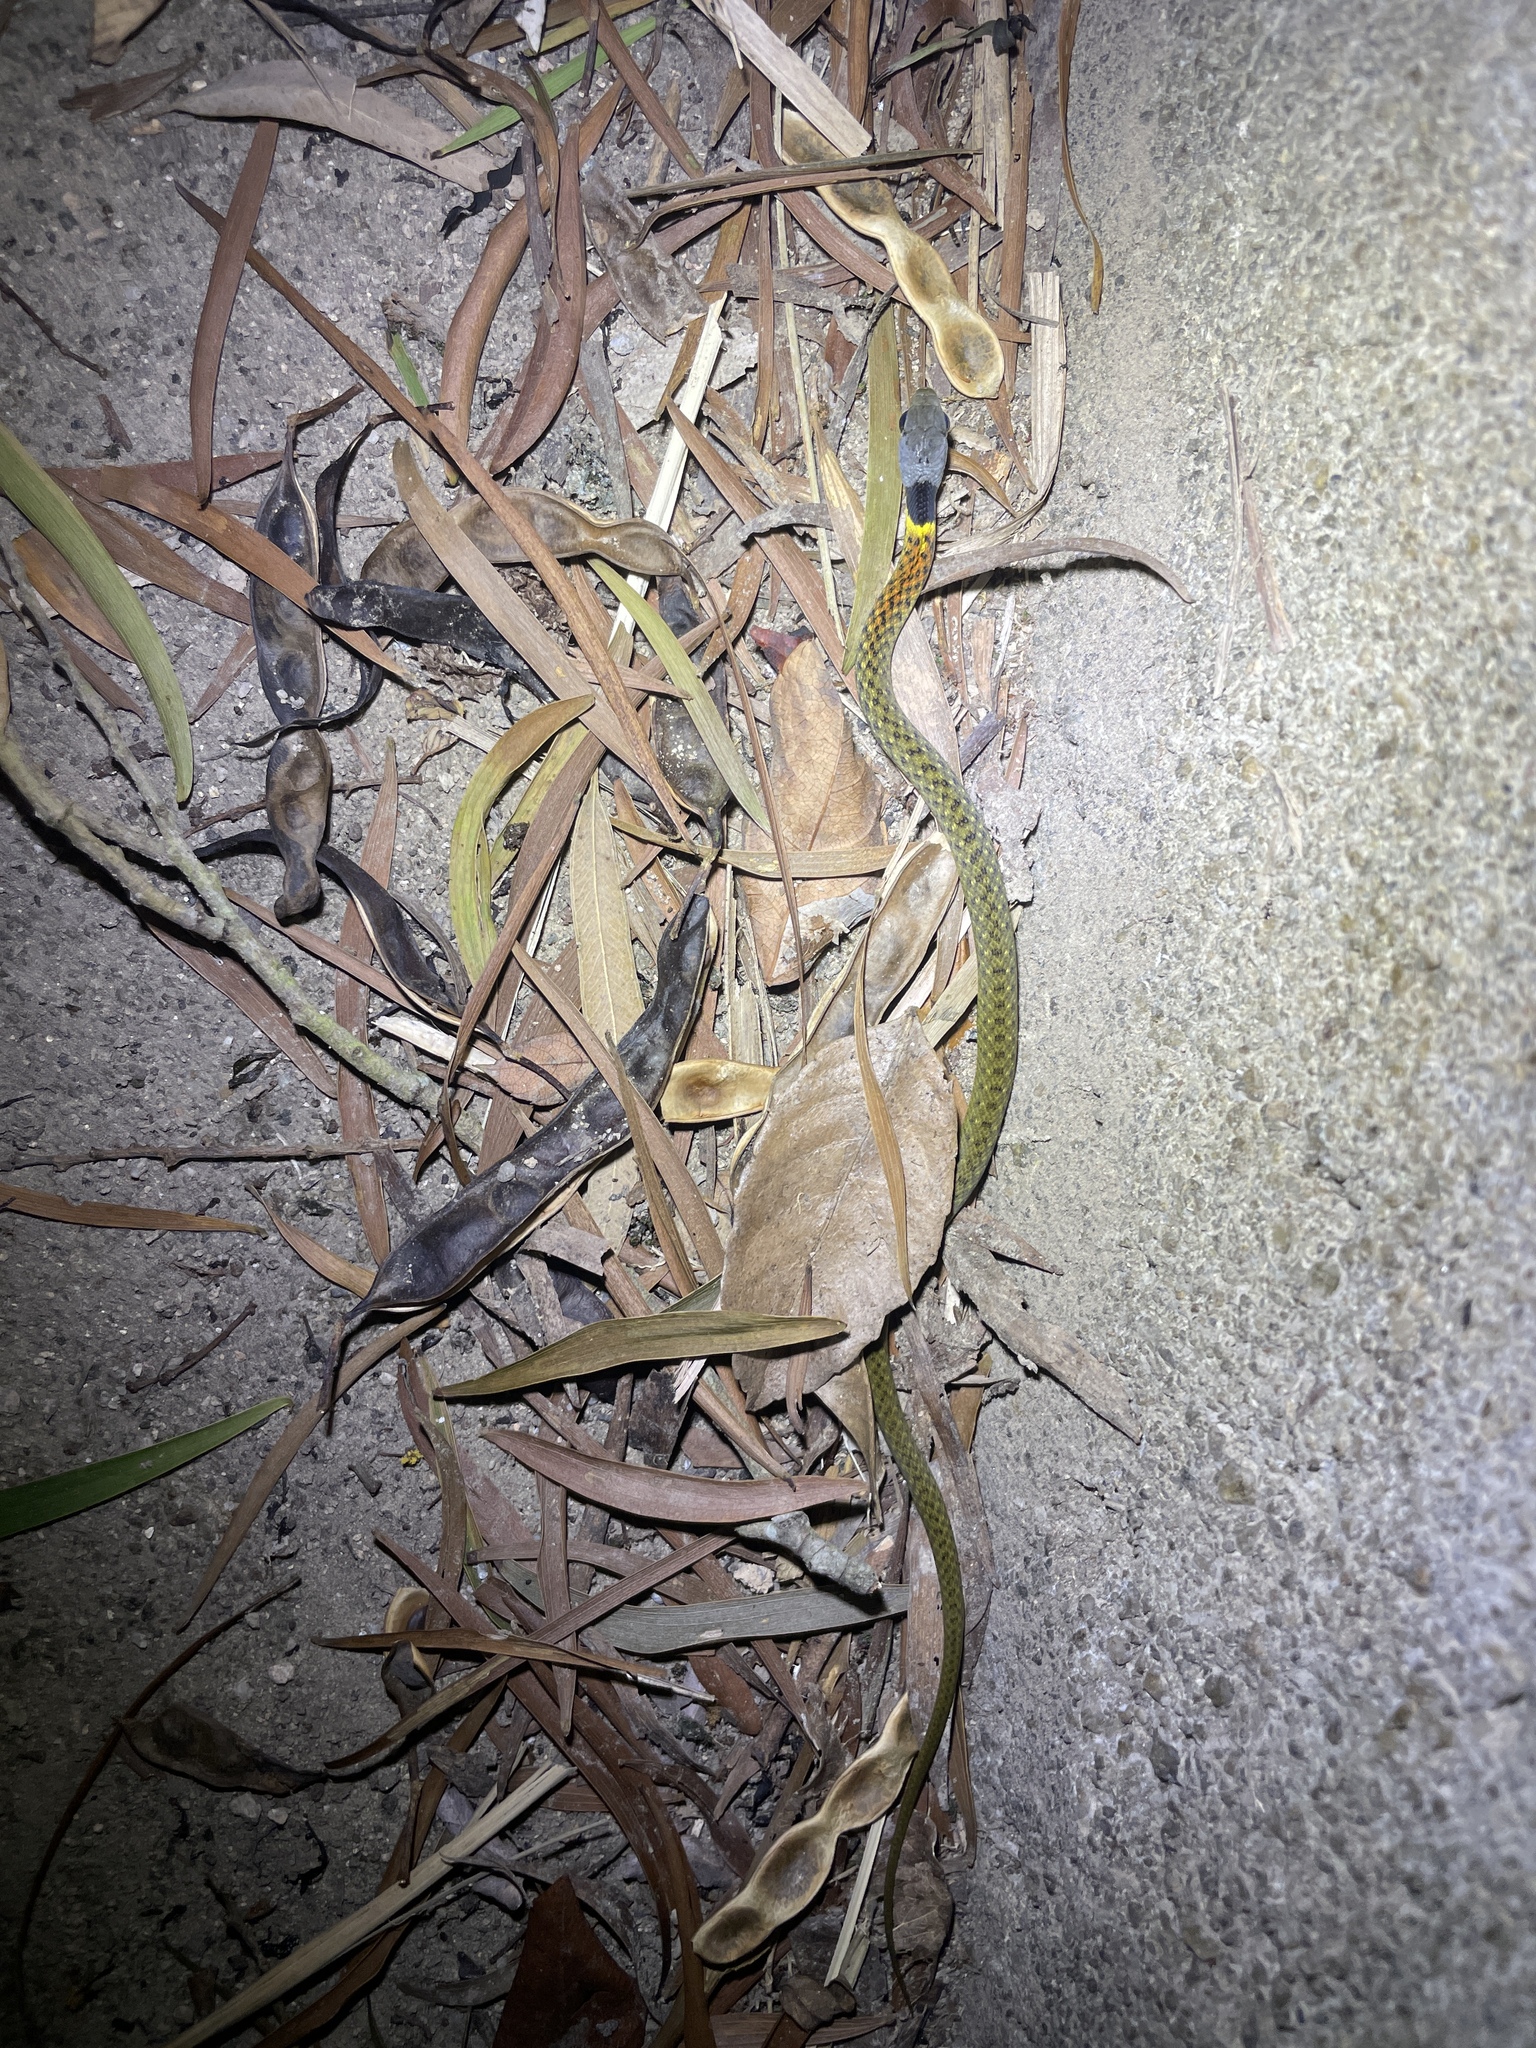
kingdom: Animalia
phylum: Chordata
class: Squamata
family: Colubridae
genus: Rhabdophis
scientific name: Rhabdophis helleri
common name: Heller’s red-necked keelback
